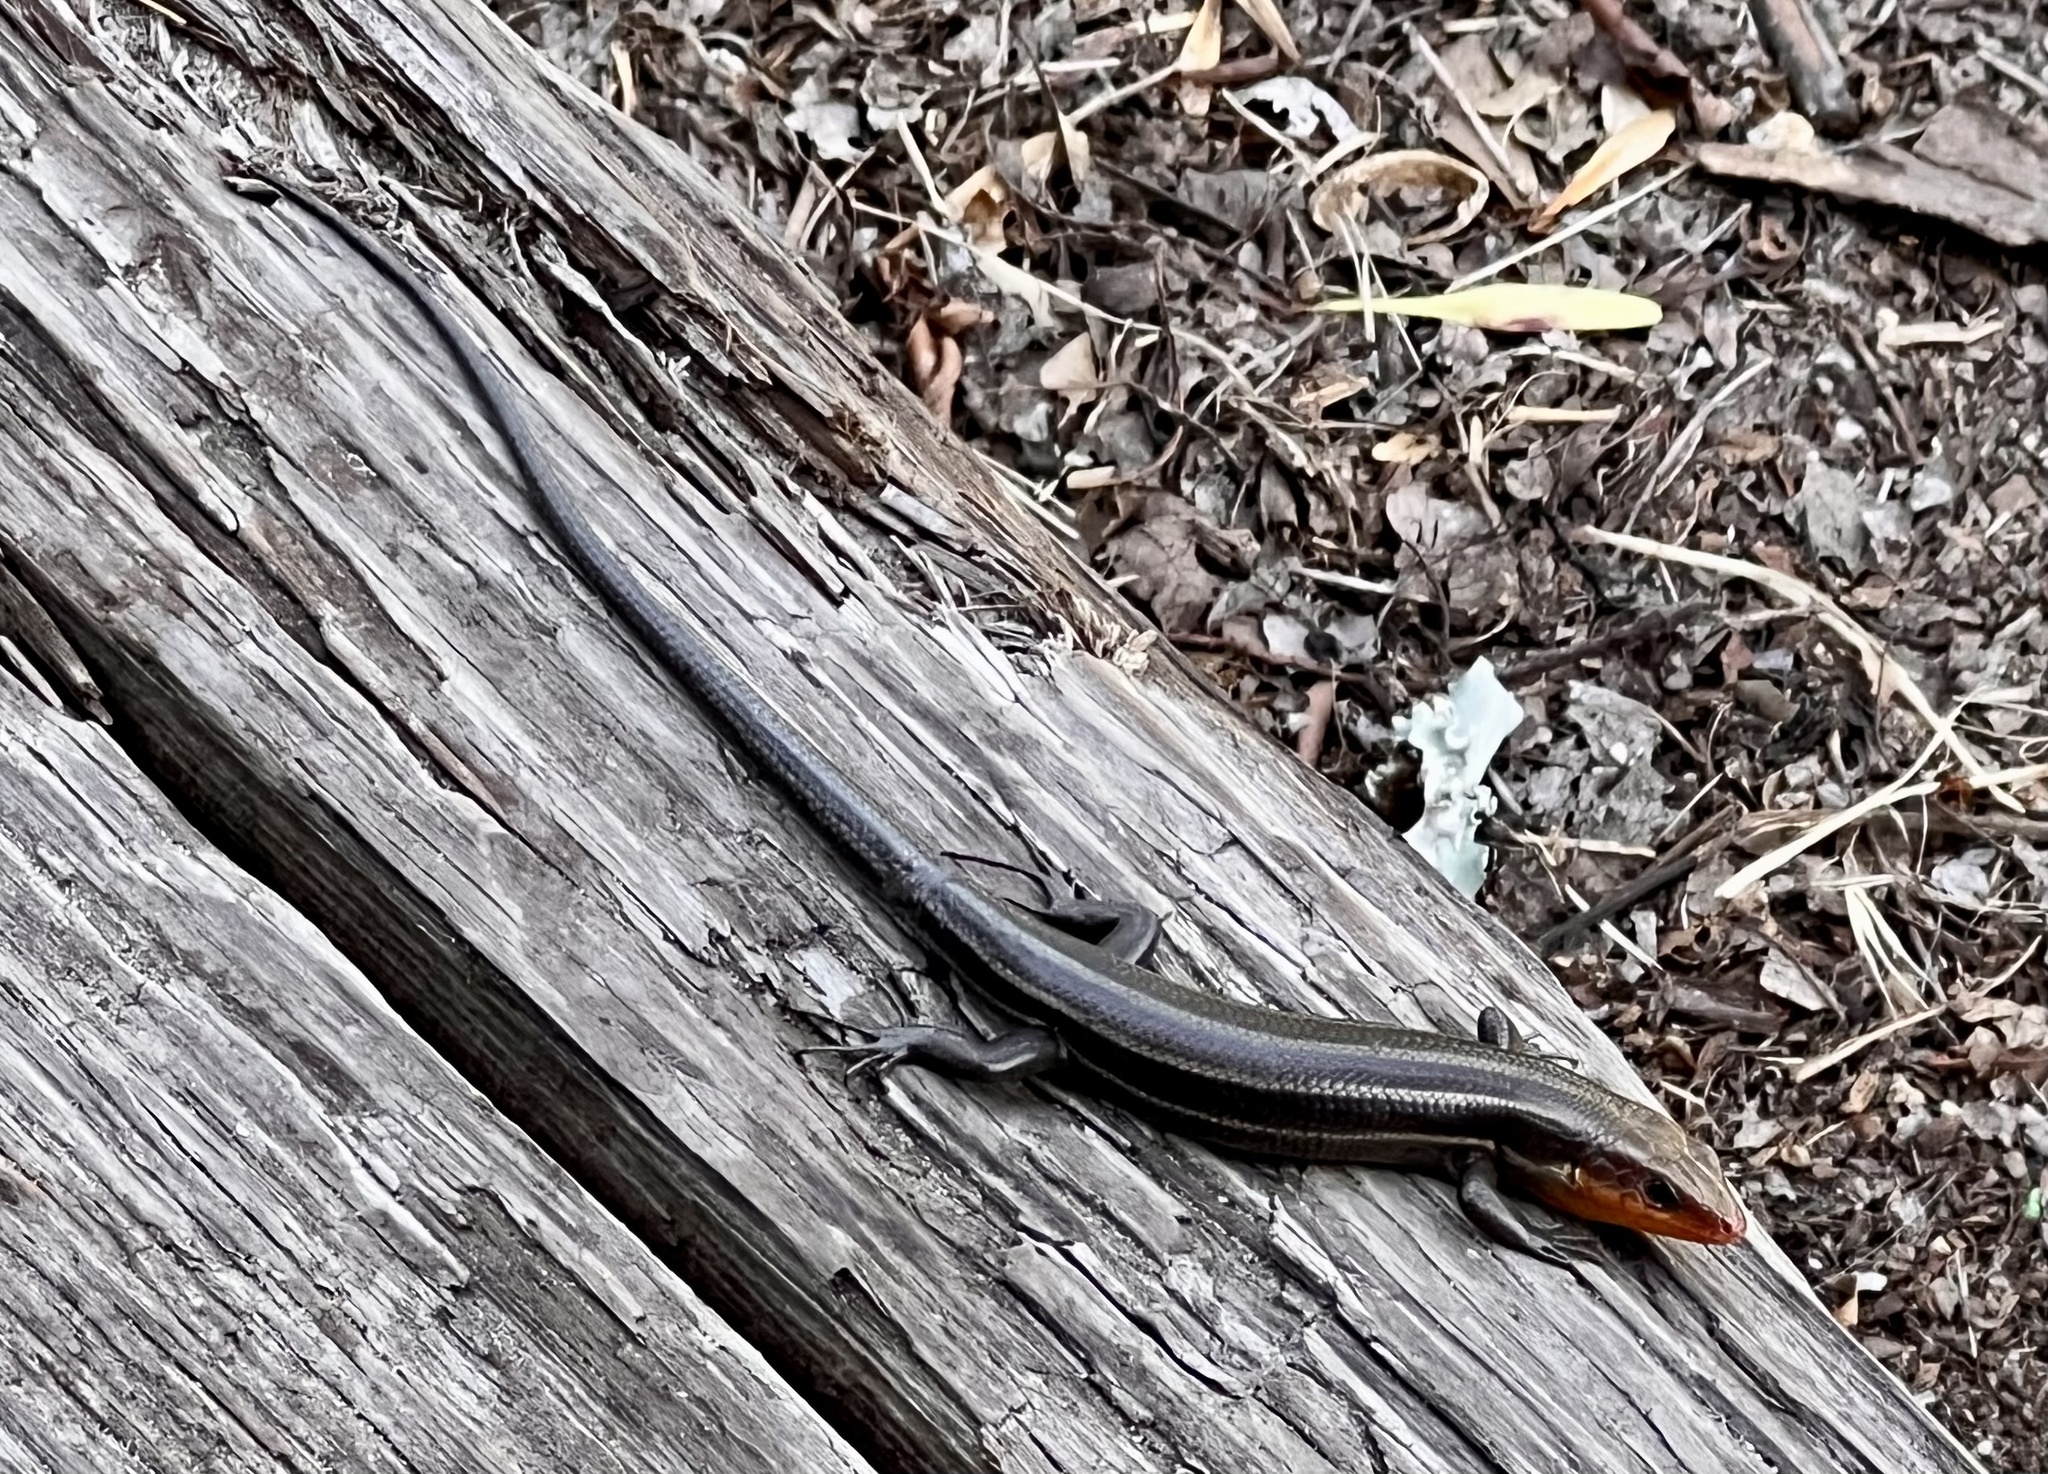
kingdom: Animalia
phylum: Chordata
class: Squamata
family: Scincidae
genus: Plestiodon
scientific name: Plestiodon fasciatus
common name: Five-lined skink
